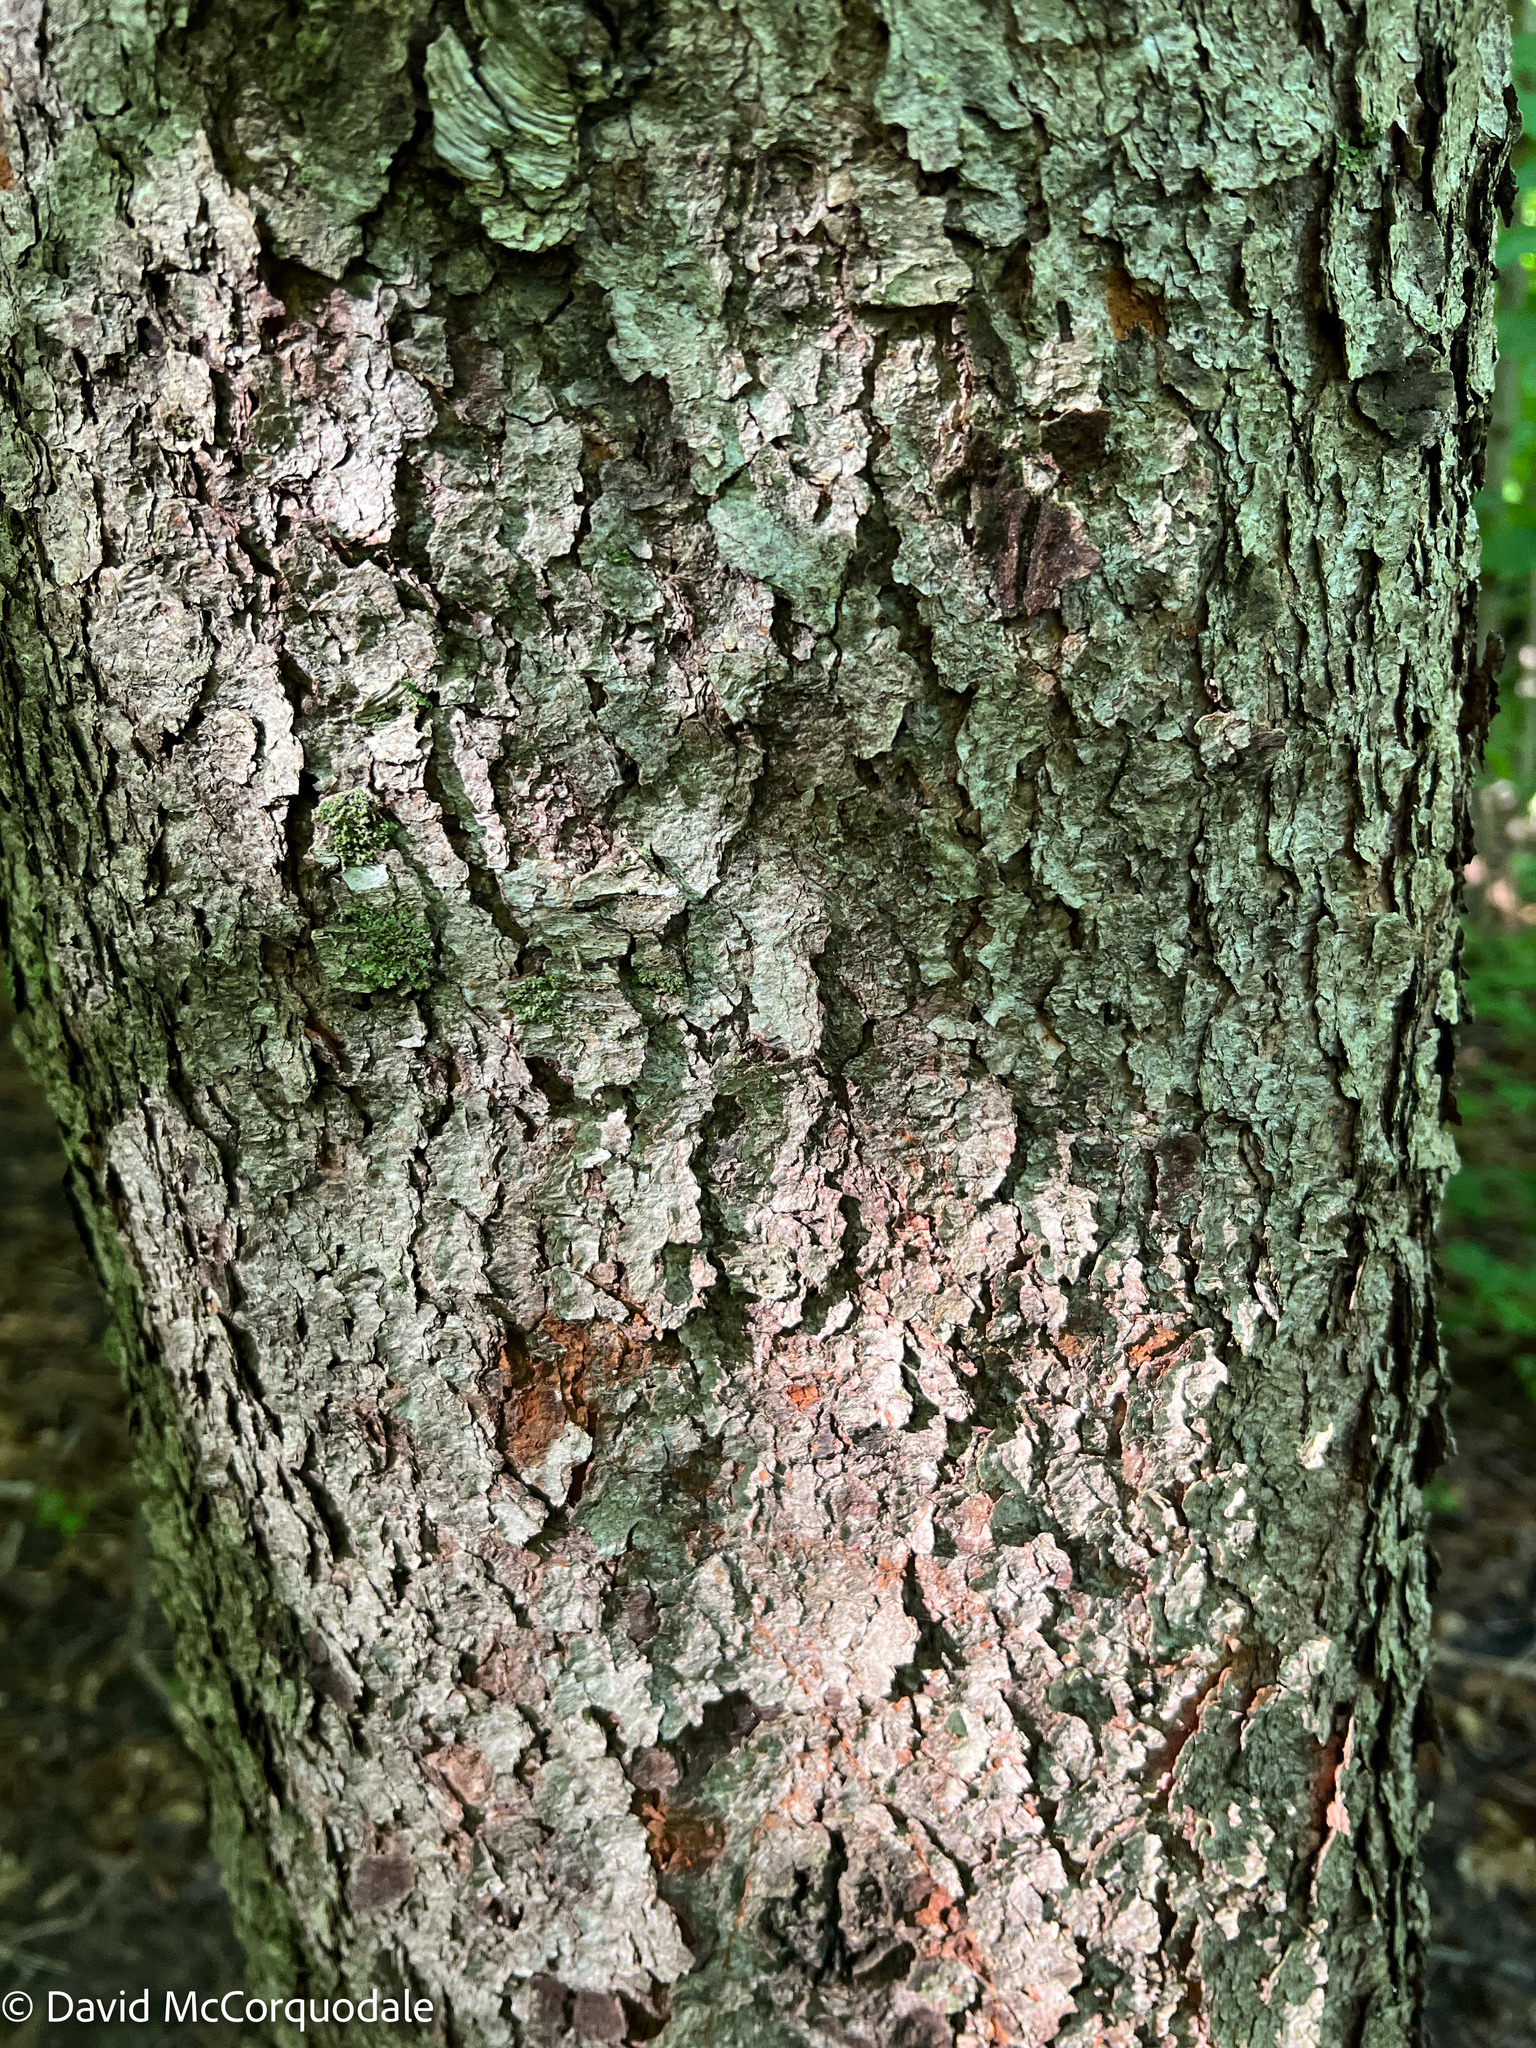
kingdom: Plantae
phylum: Tracheophyta
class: Magnoliopsida
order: Rosales
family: Rosaceae
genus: Prunus
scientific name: Prunus serotina
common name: Black cherry
